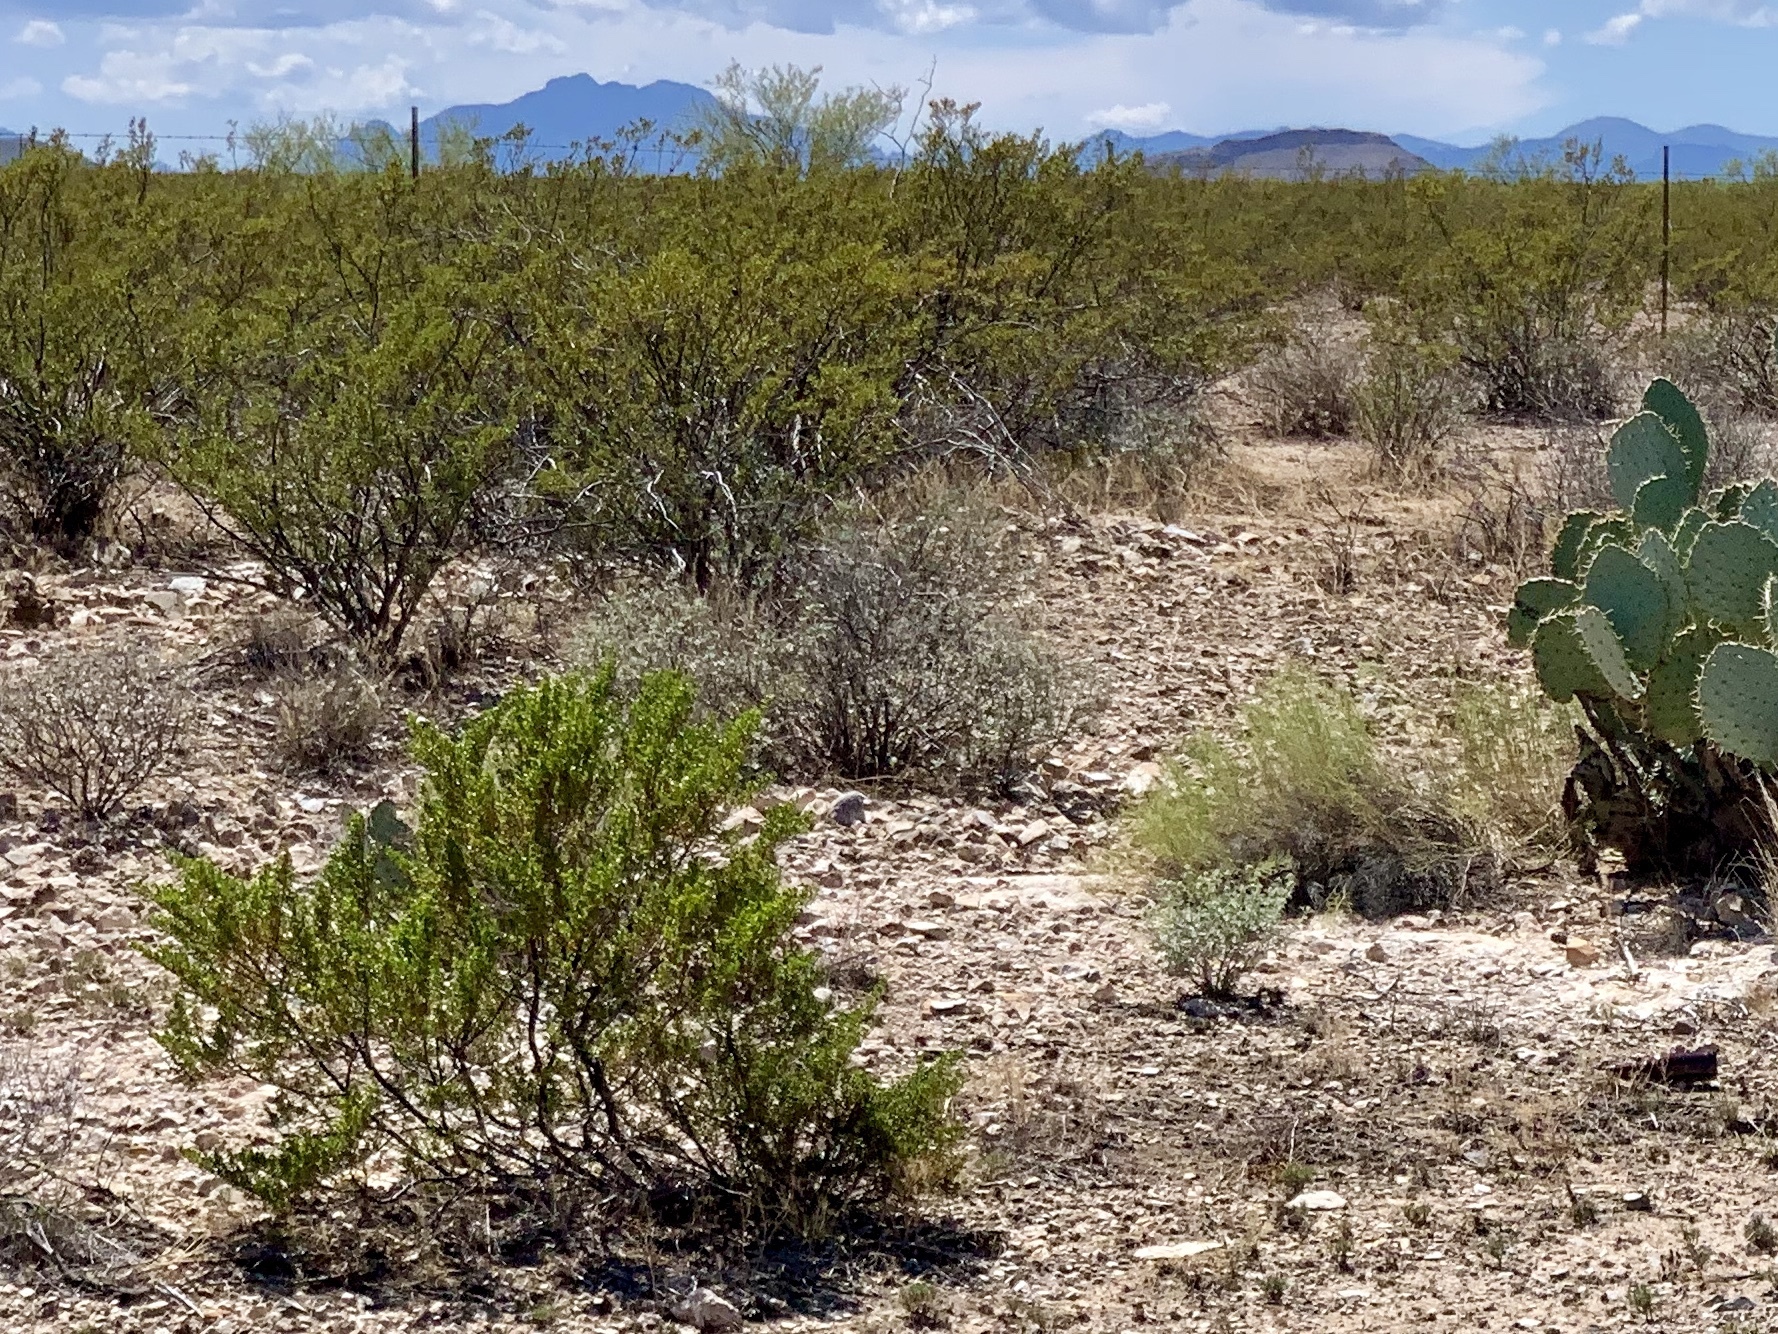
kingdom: Plantae
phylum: Tracheophyta
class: Magnoliopsida
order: Zygophyllales
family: Zygophyllaceae
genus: Larrea
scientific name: Larrea tridentata
